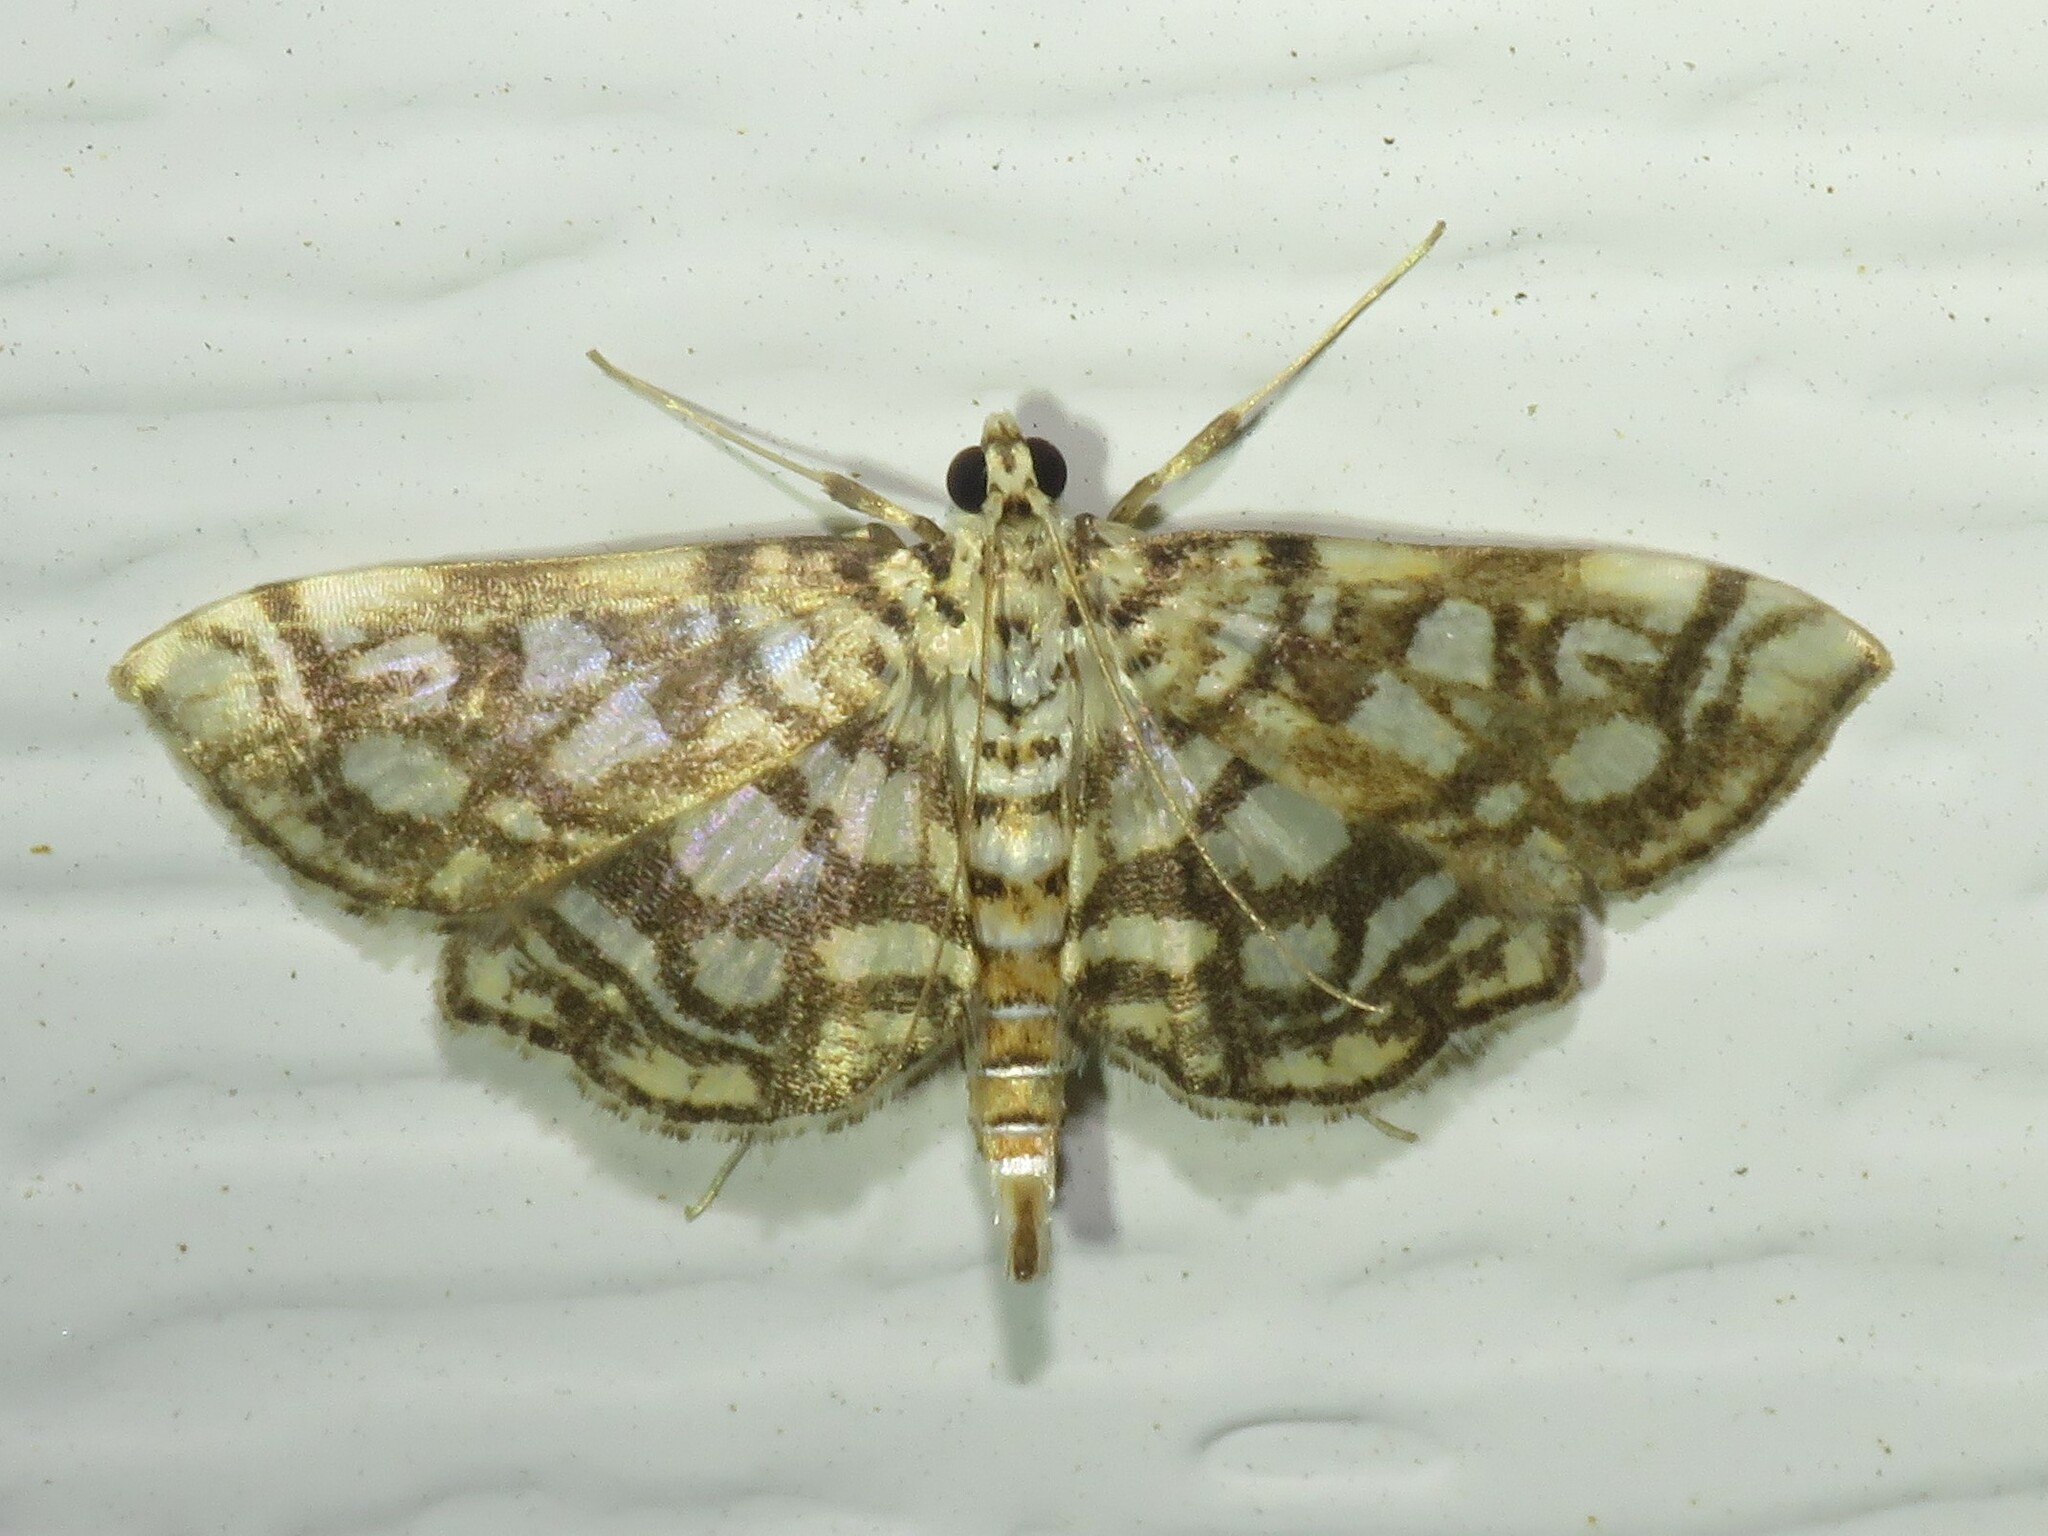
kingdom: Animalia
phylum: Arthropoda
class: Insecta
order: Lepidoptera
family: Crambidae
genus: Lygropia
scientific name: Lygropia rivulalis
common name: Bog lygropia moth
